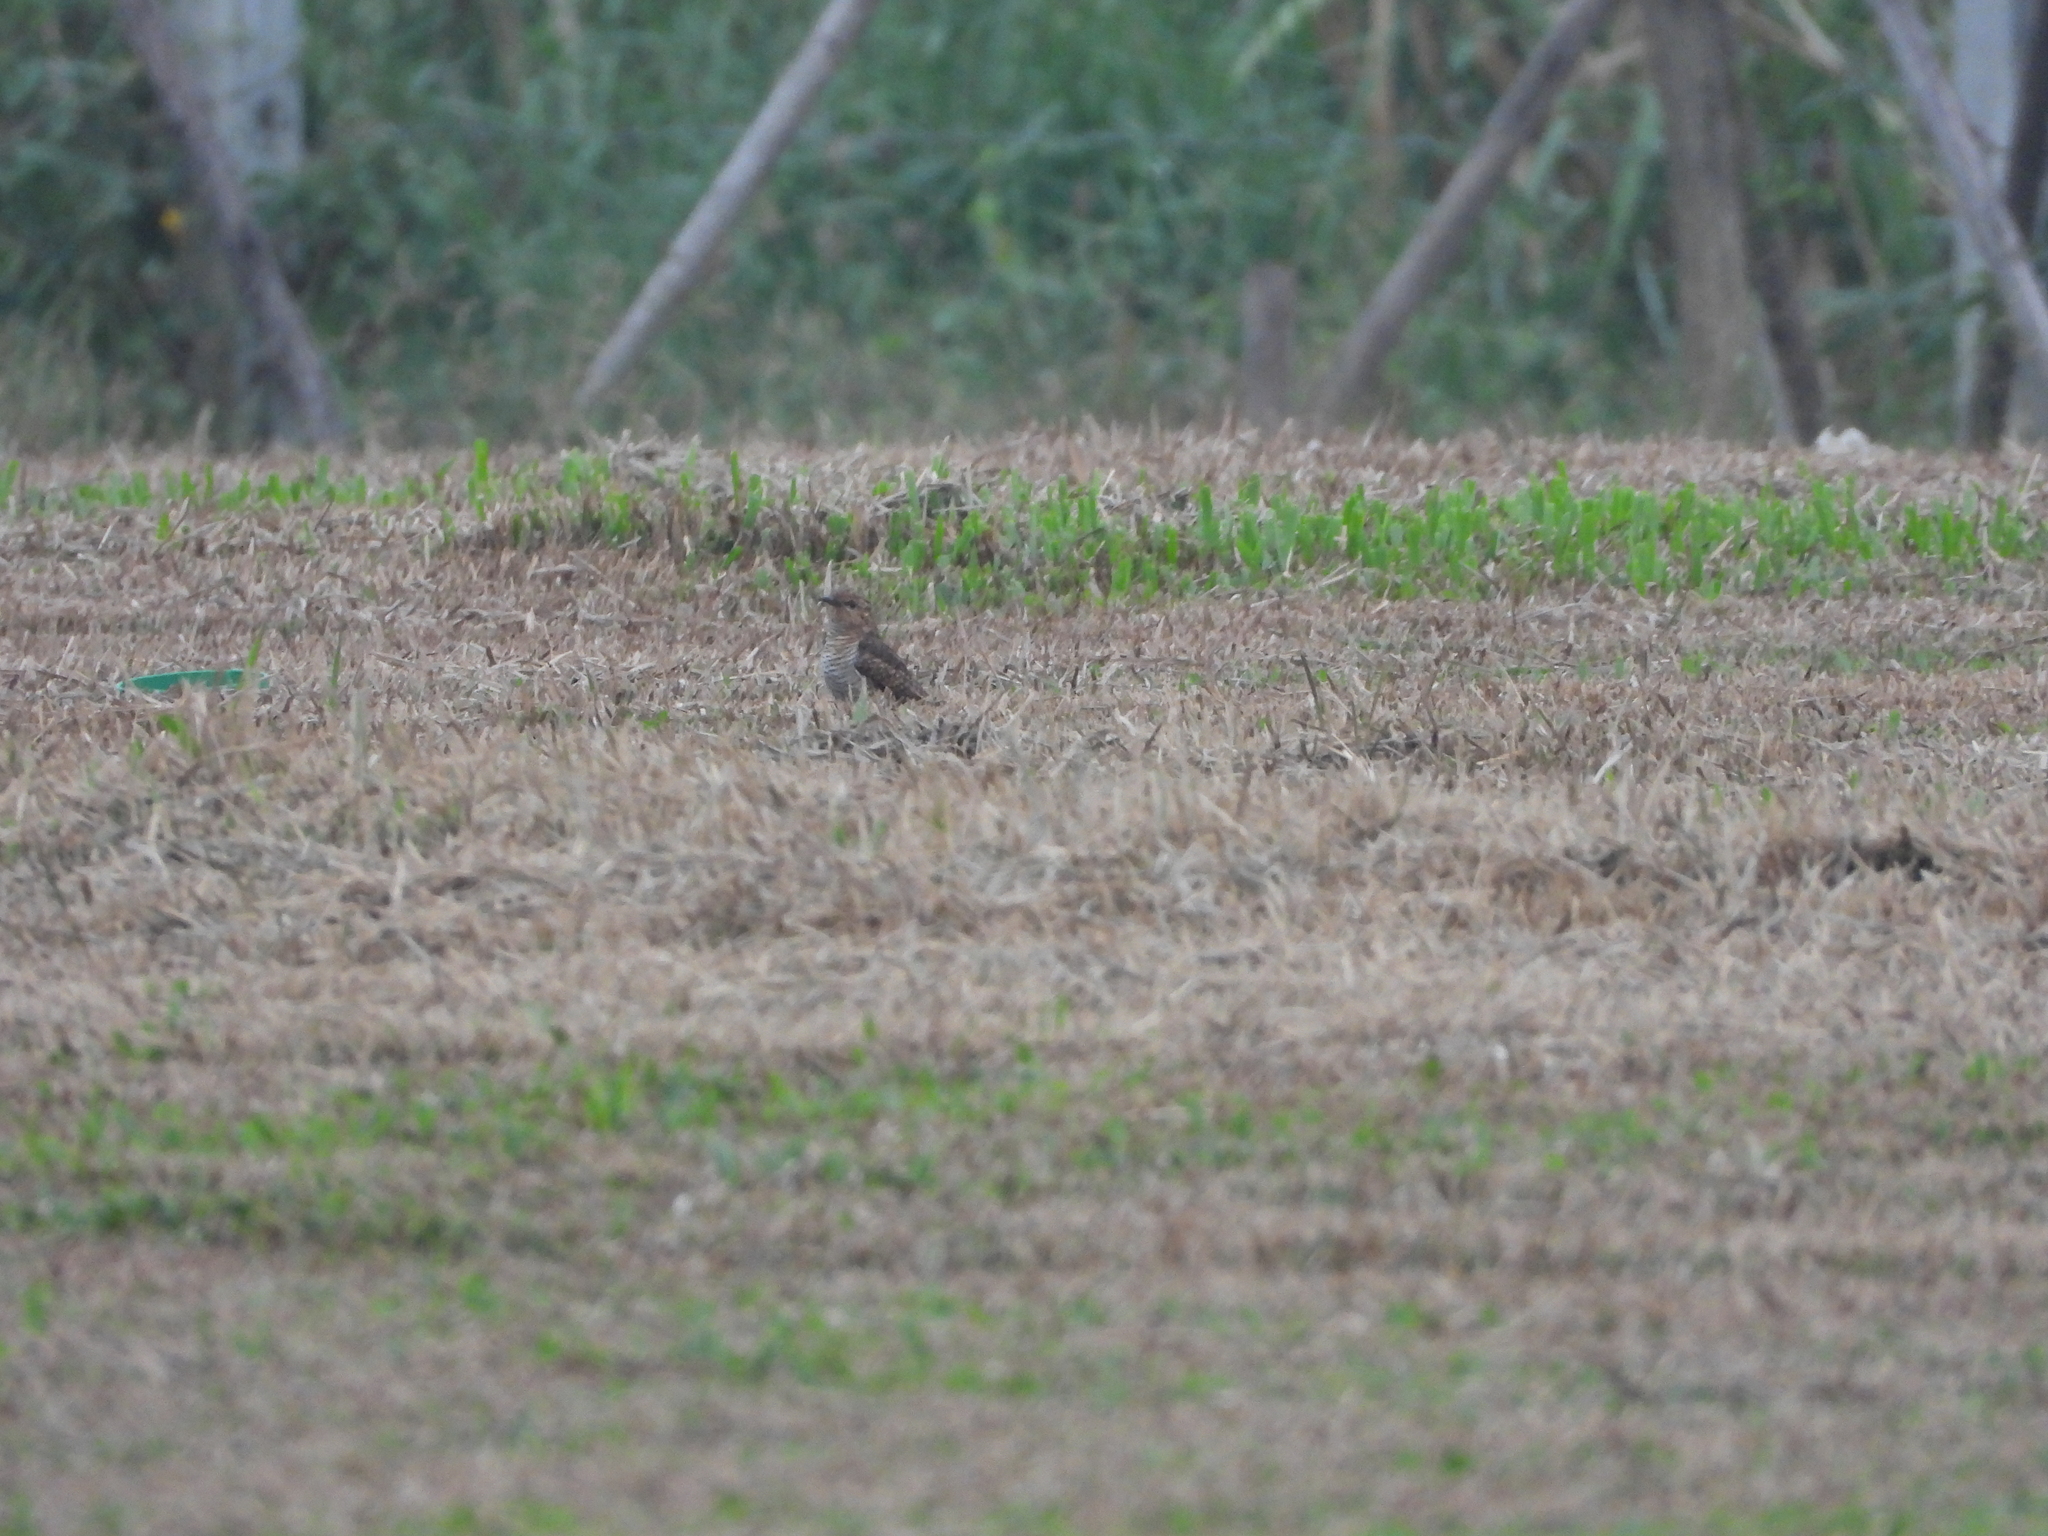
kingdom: Animalia
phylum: Chordata
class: Aves
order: Cuculiformes
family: Cuculidae
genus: Cacomantis
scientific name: Cacomantis merulinus
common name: Plaintive cuckoo
